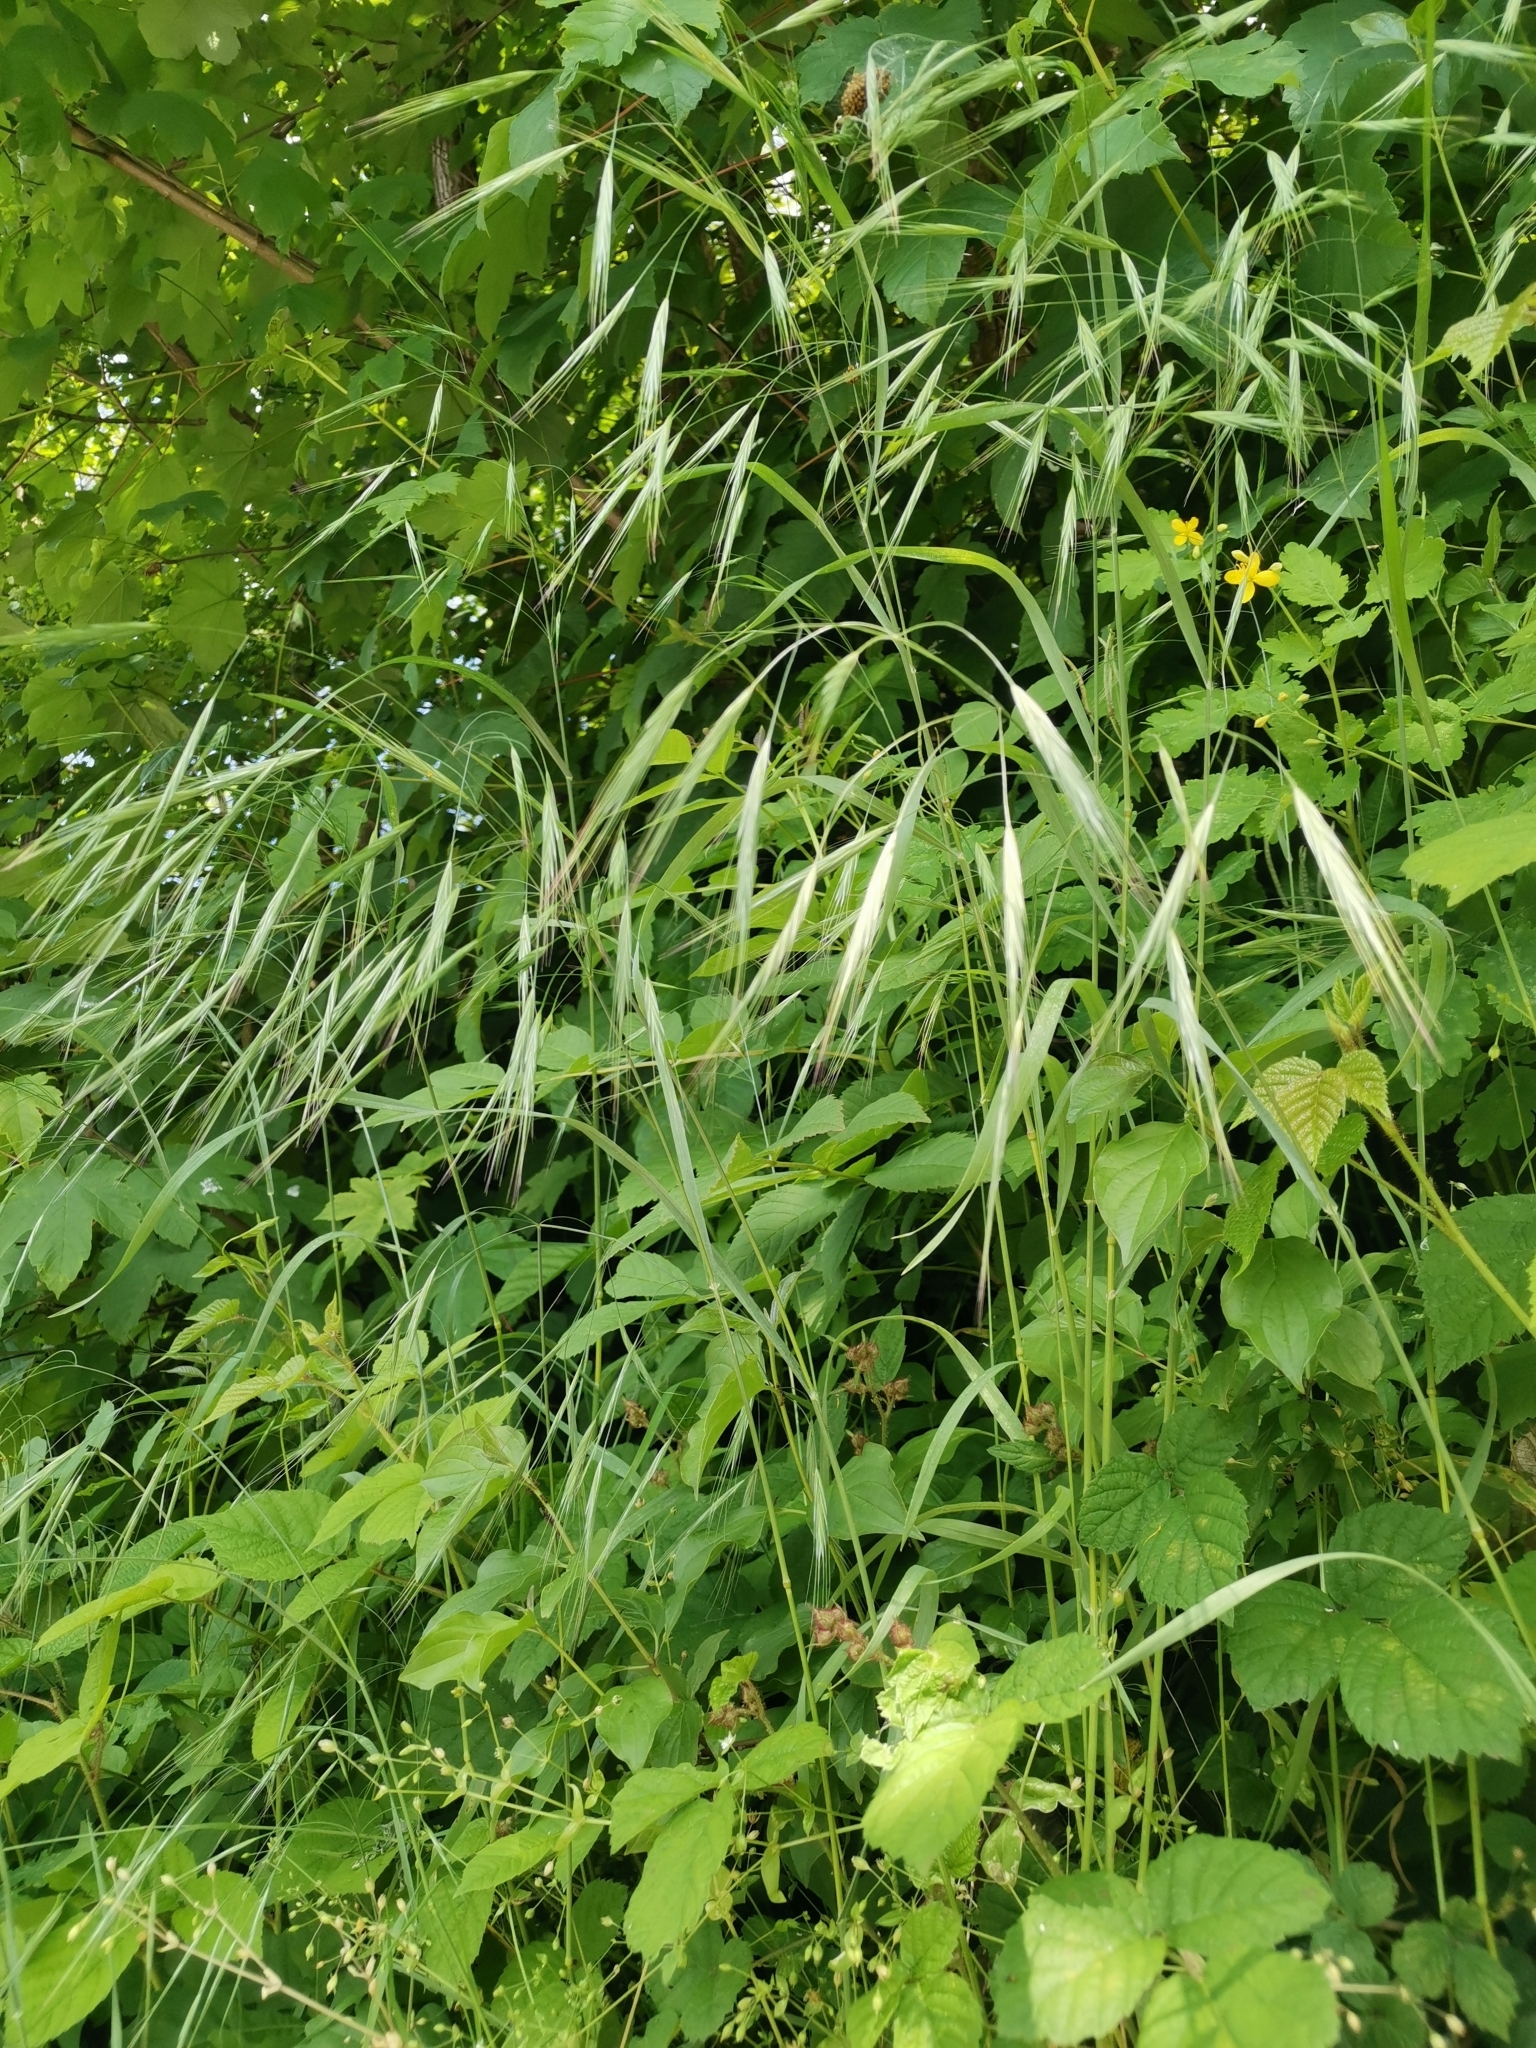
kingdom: Plantae
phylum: Tracheophyta
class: Liliopsida
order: Poales
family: Poaceae
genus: Bromus
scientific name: Bromus sterilis
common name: Poverty brome
